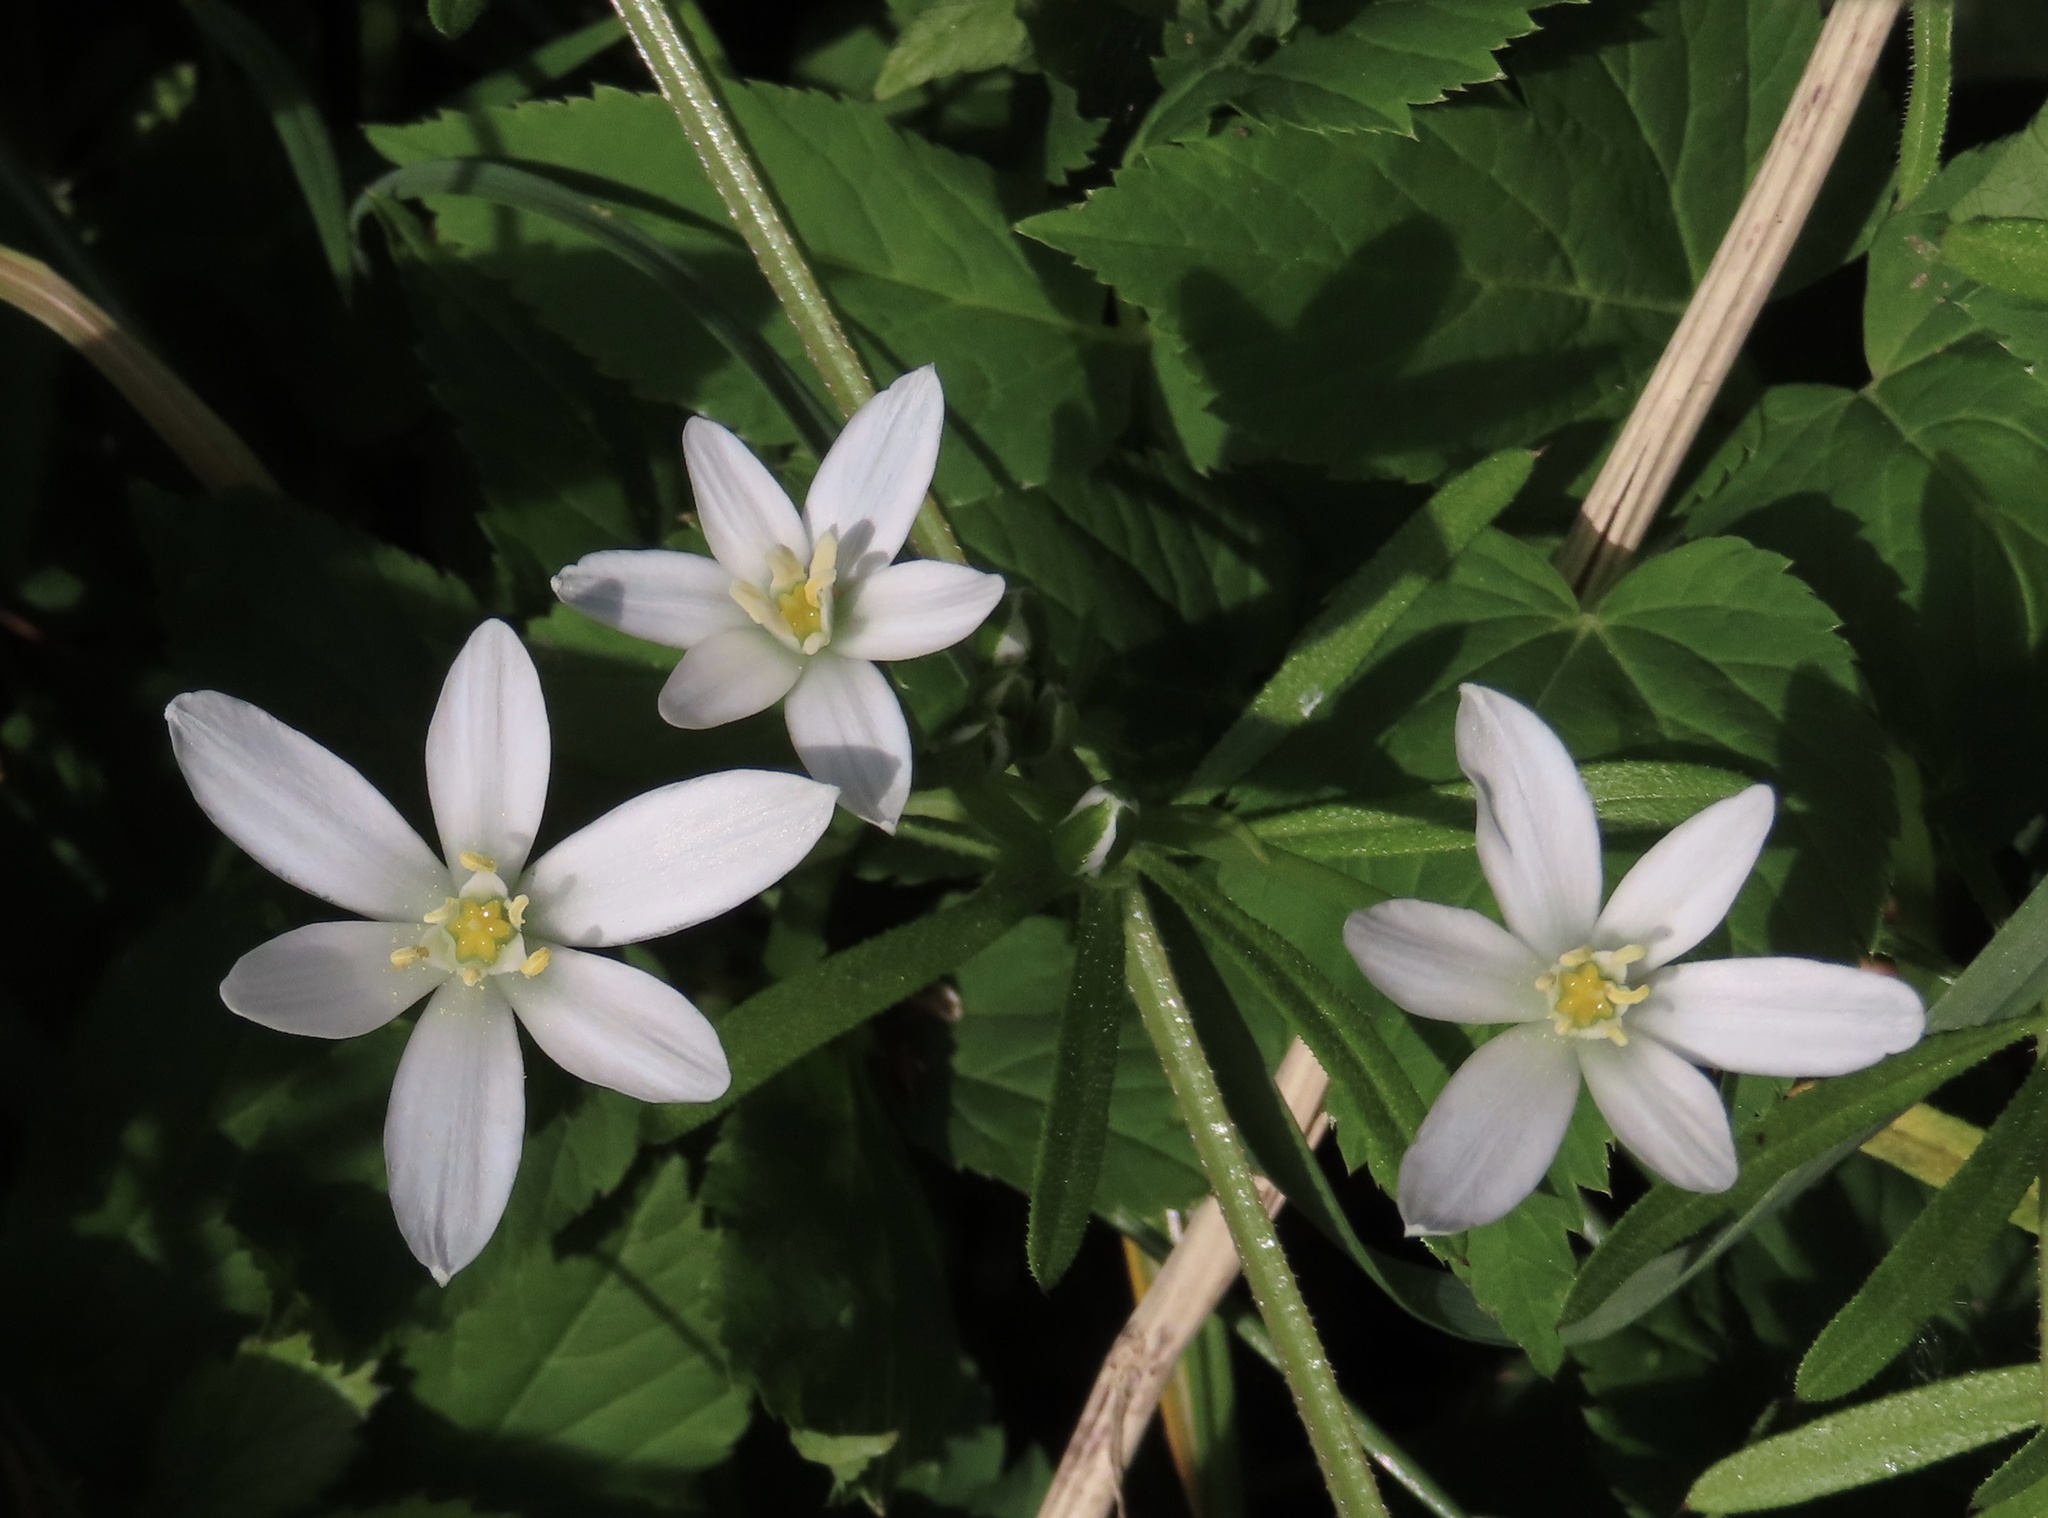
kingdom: Plantae
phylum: Tracheophyta
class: Liliopsida
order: Asparagales
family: Asparagaceae
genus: Ornithogalum
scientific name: Ornithogalum umbellatum
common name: Garden star-of-bethlehem
